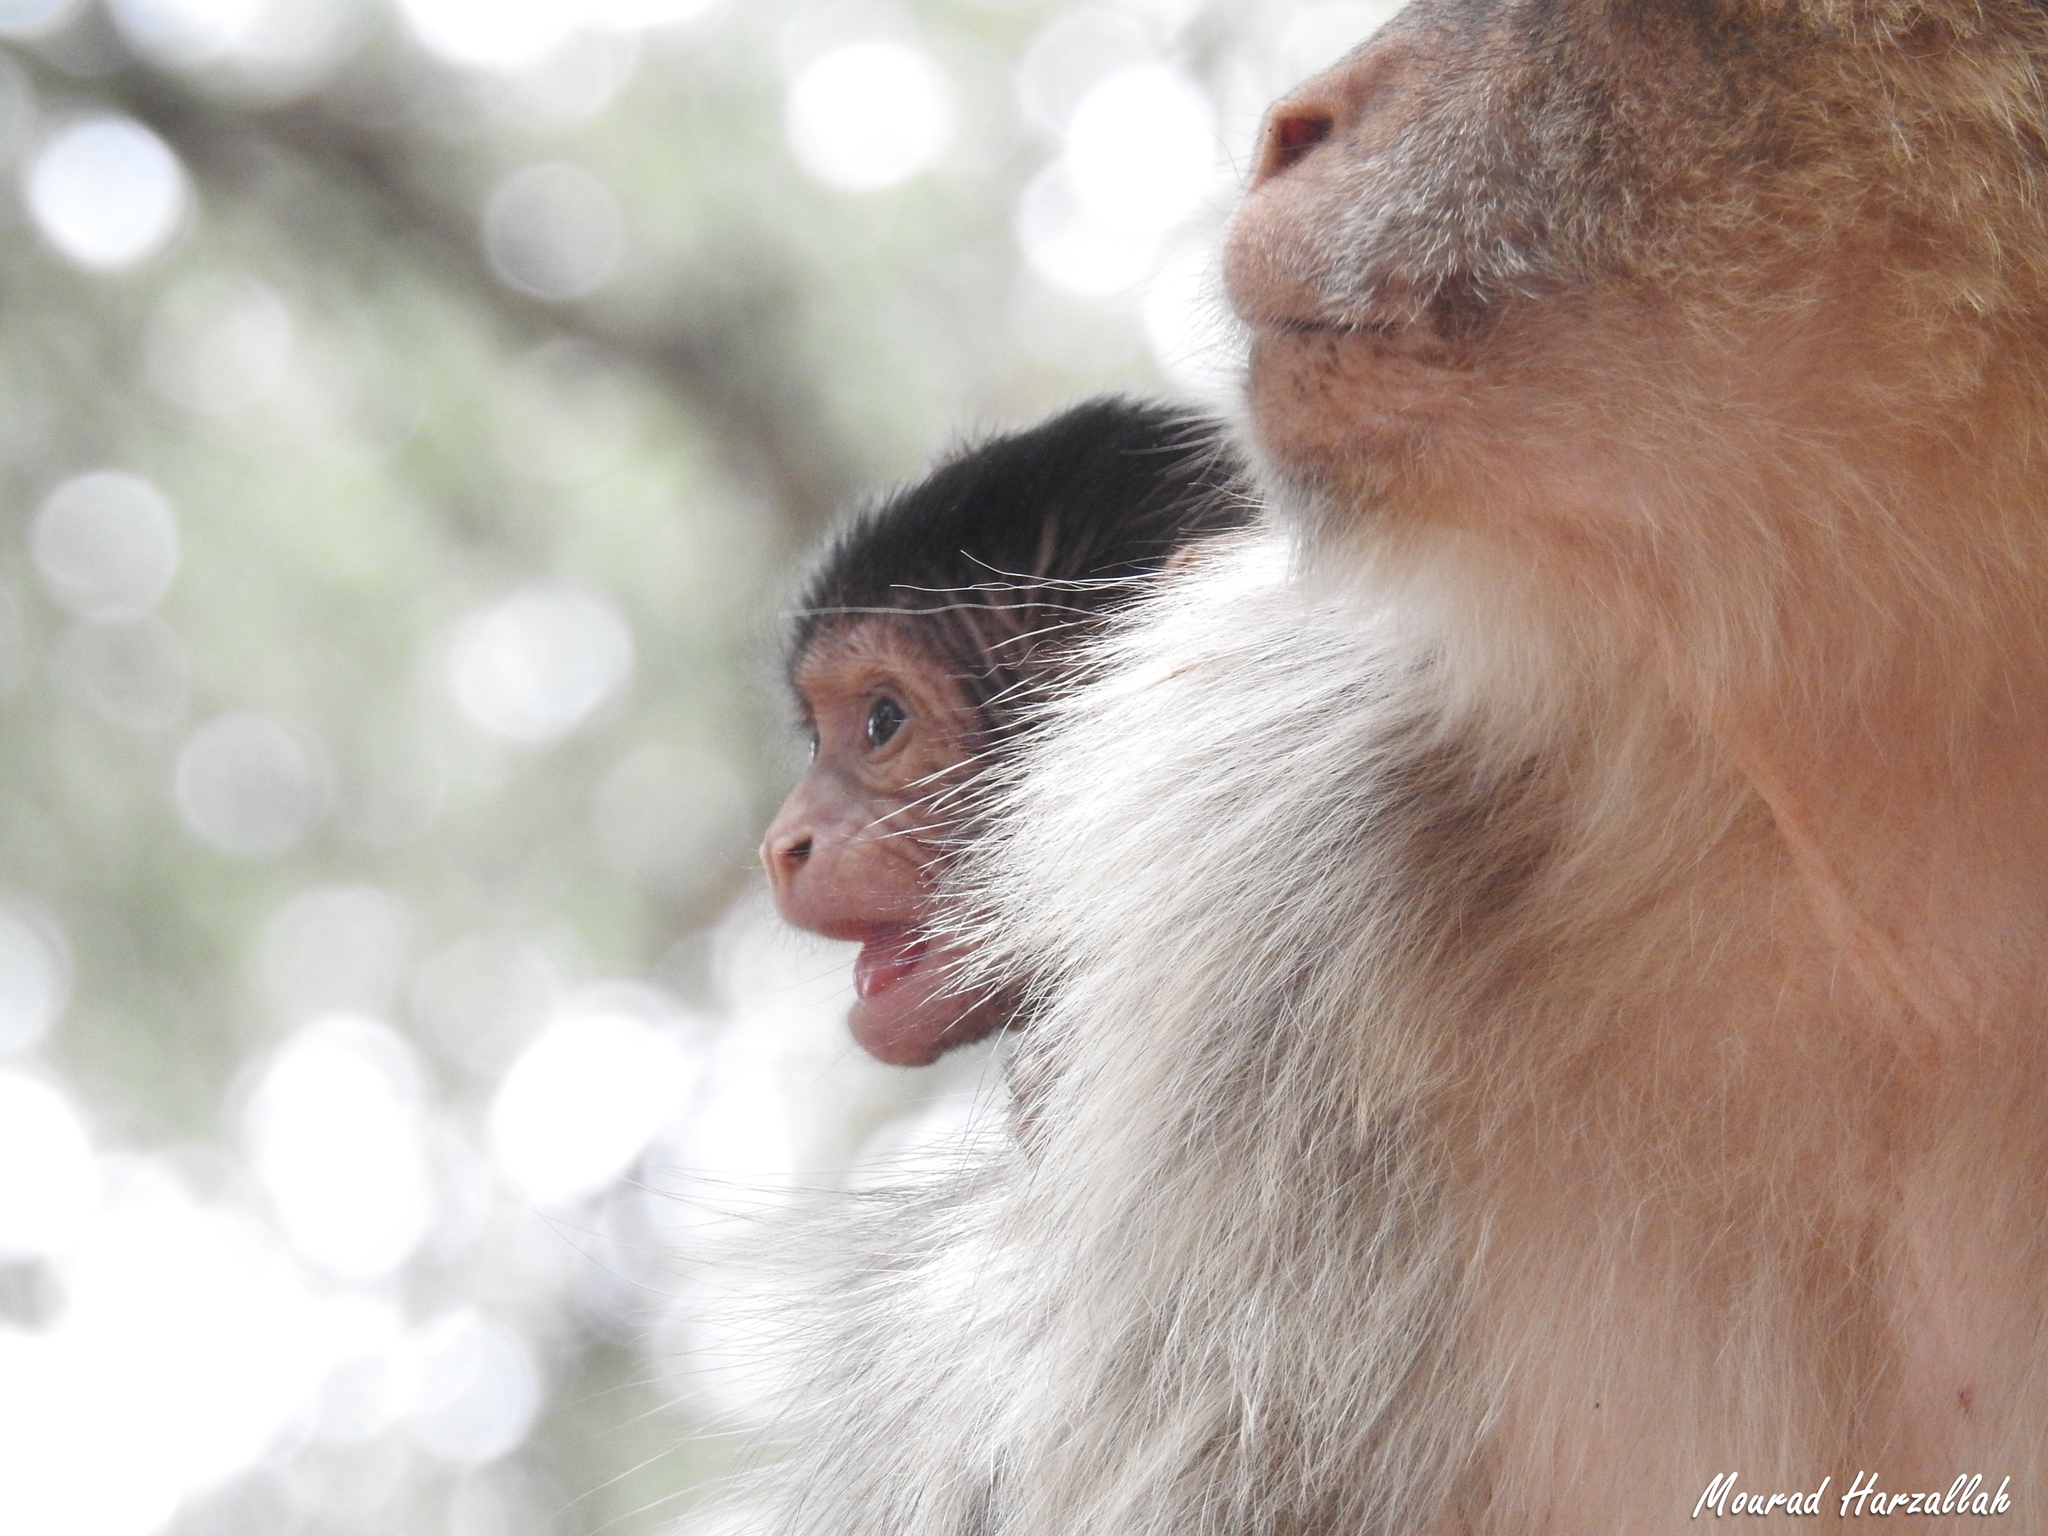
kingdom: Animalia
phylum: Chordata
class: Mammalia
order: Primates
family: Cercopithecidae
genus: Macaca
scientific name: Macaca sylvanus
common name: Barbary macaque
